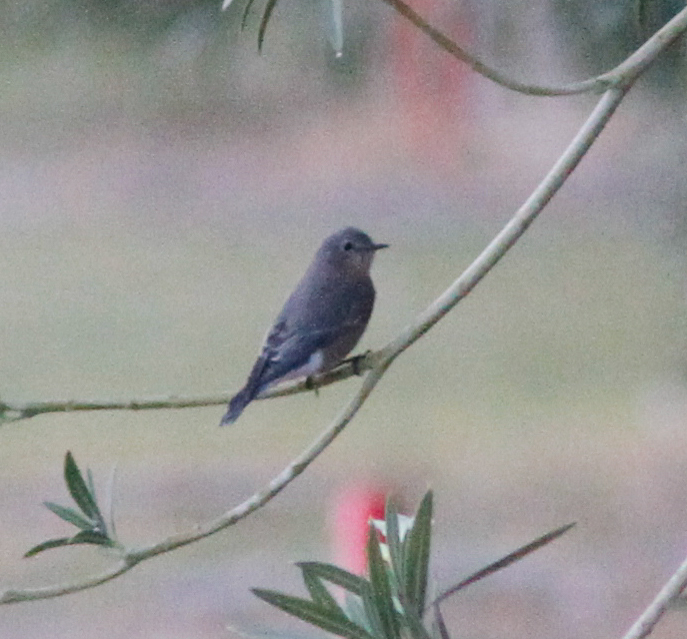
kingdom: Animalia
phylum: Chordata
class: Aves
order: Passeriformes
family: Turdidae
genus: Sialia
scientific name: Sialia currucoides
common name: Mountain bluebird
